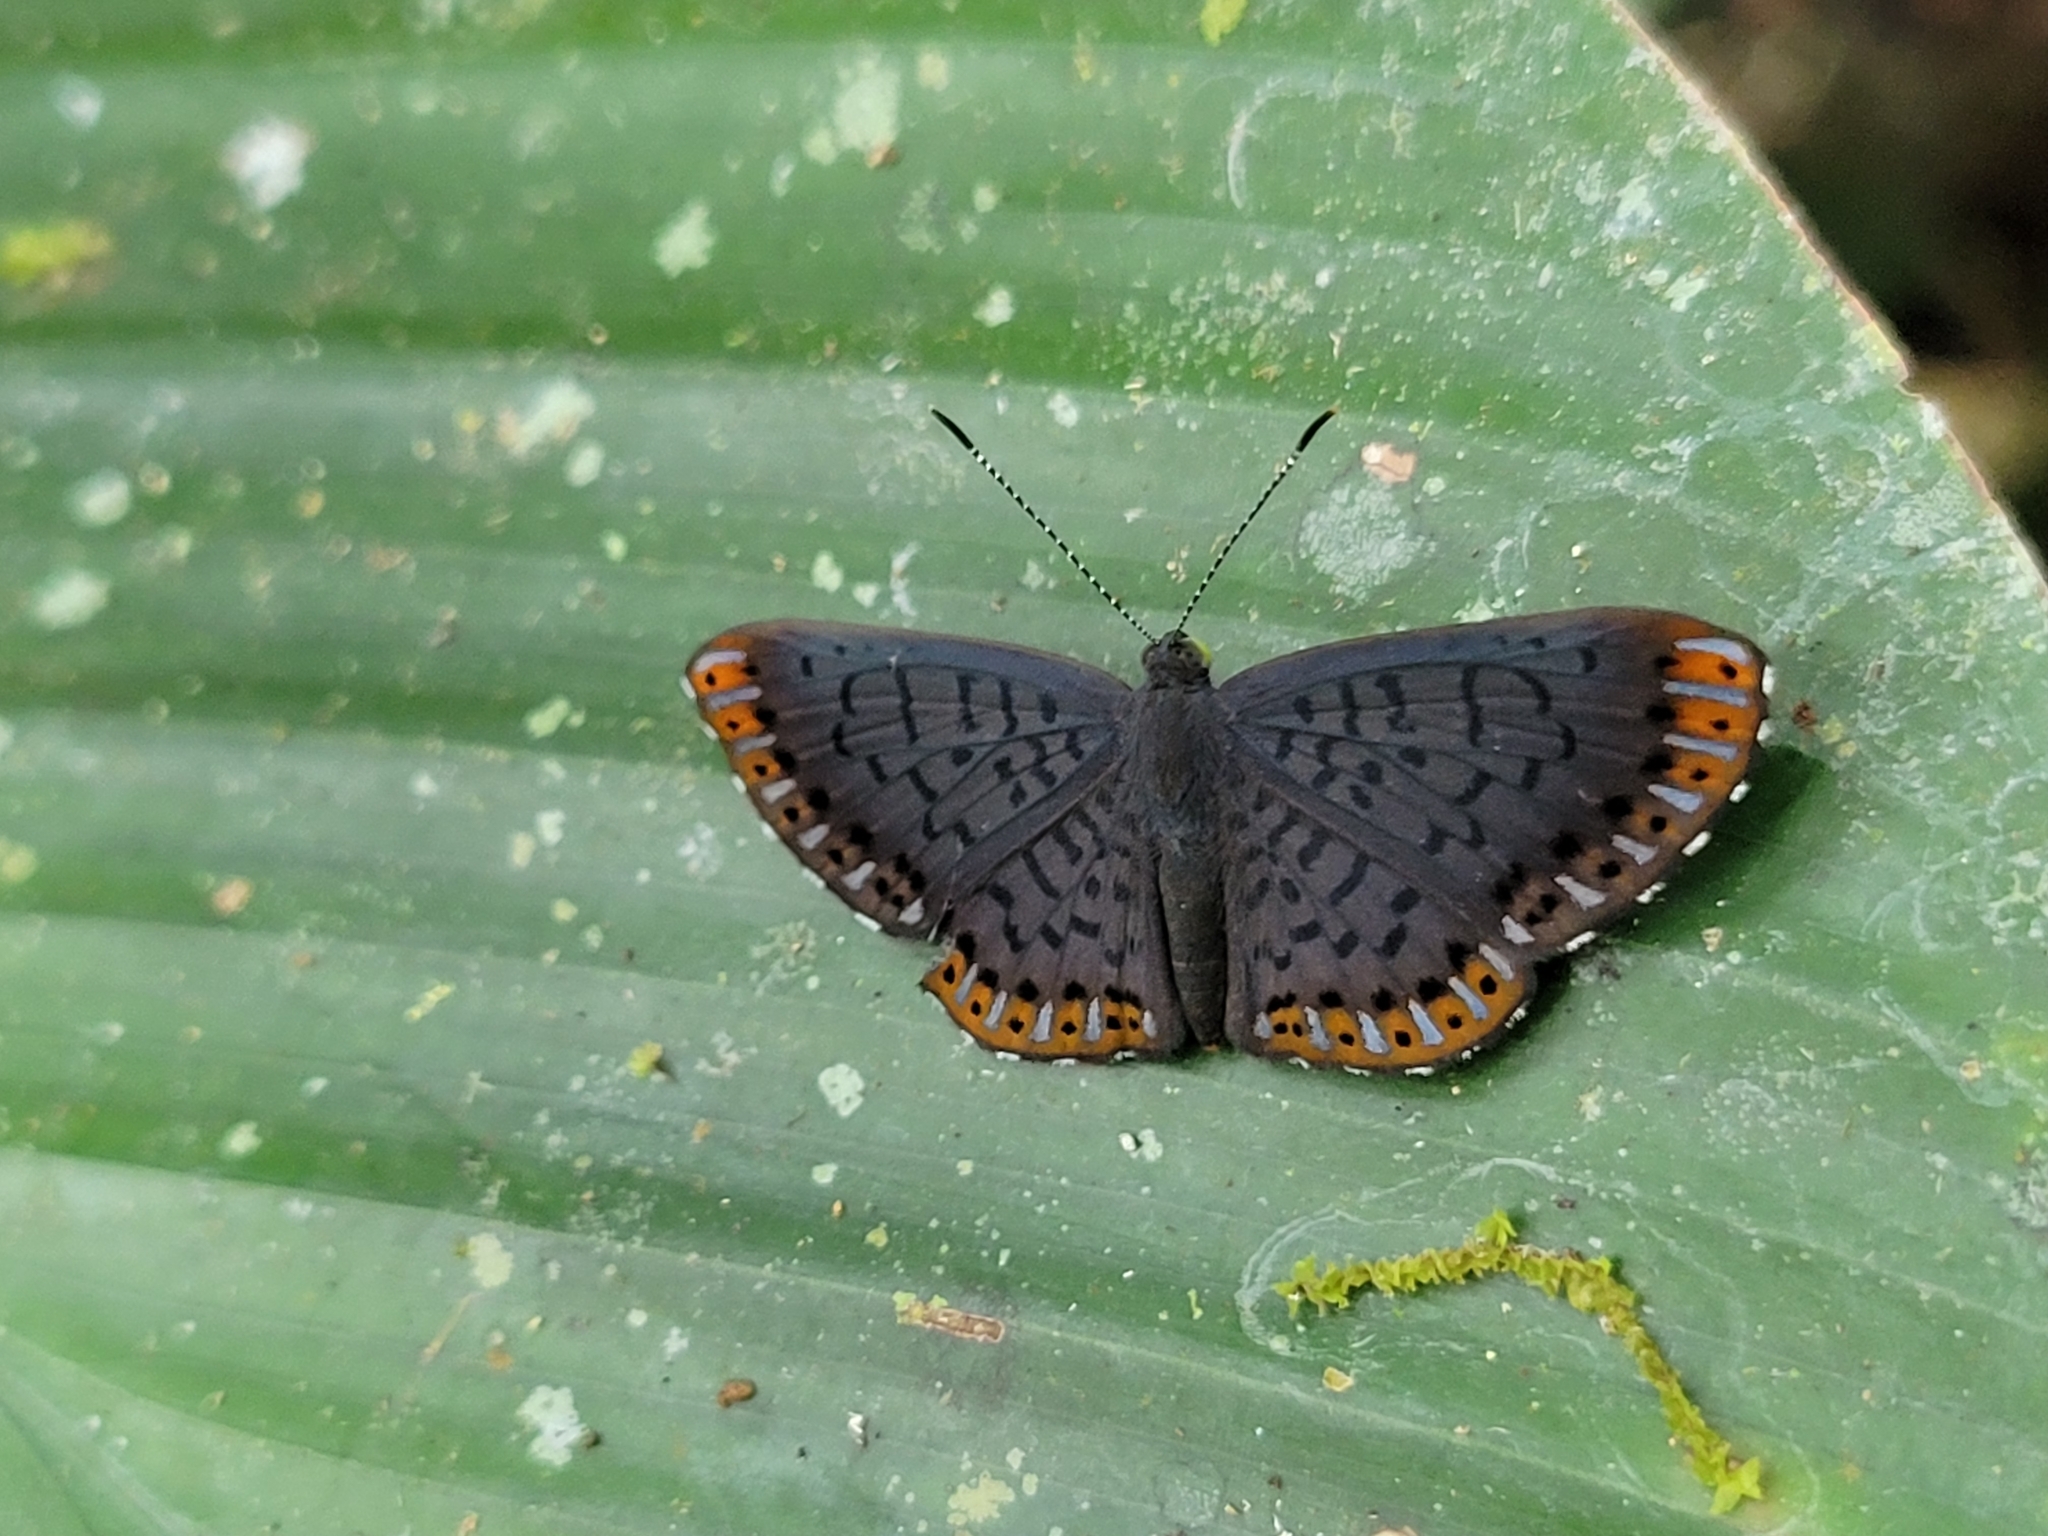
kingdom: Animalia
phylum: Arthropoda
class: Insecta
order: Lepidoptera
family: Riodinidae
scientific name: Riodinidae
